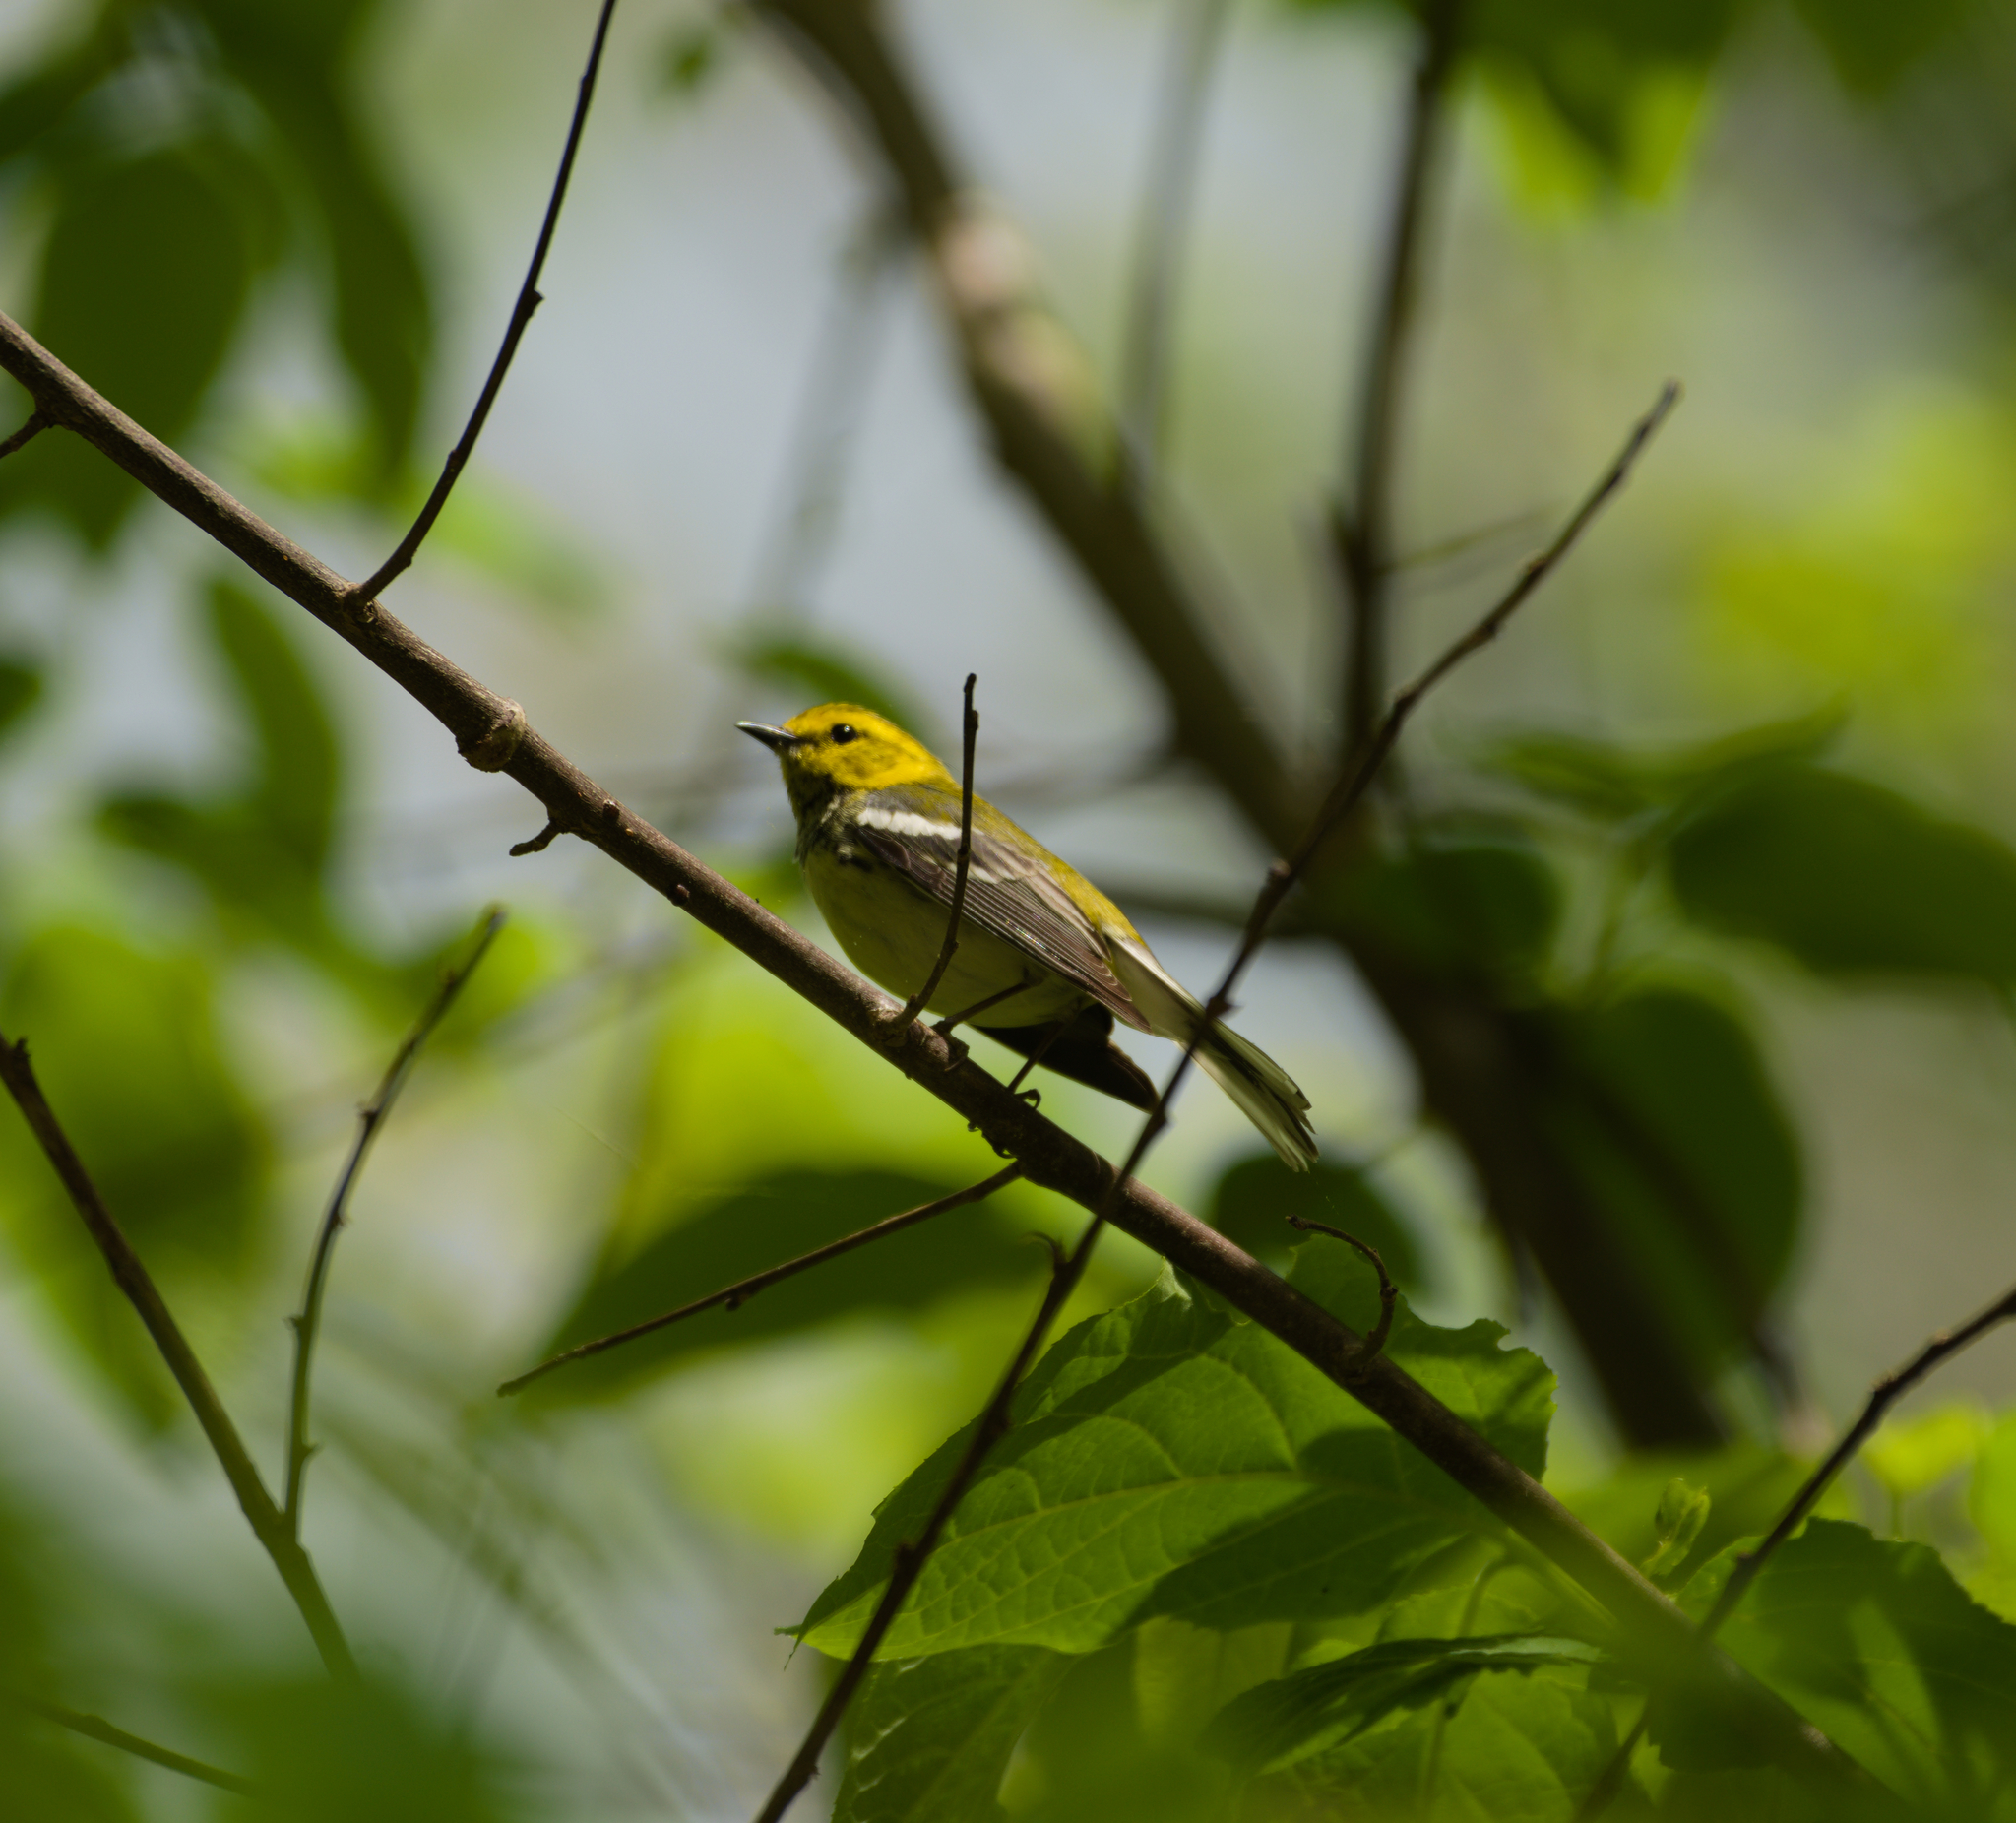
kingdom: Animalia
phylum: Chordata
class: Aves
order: Passeriformes
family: Parulidae
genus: Setophaga
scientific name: Setophaga virens
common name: Black-throated green warbler
